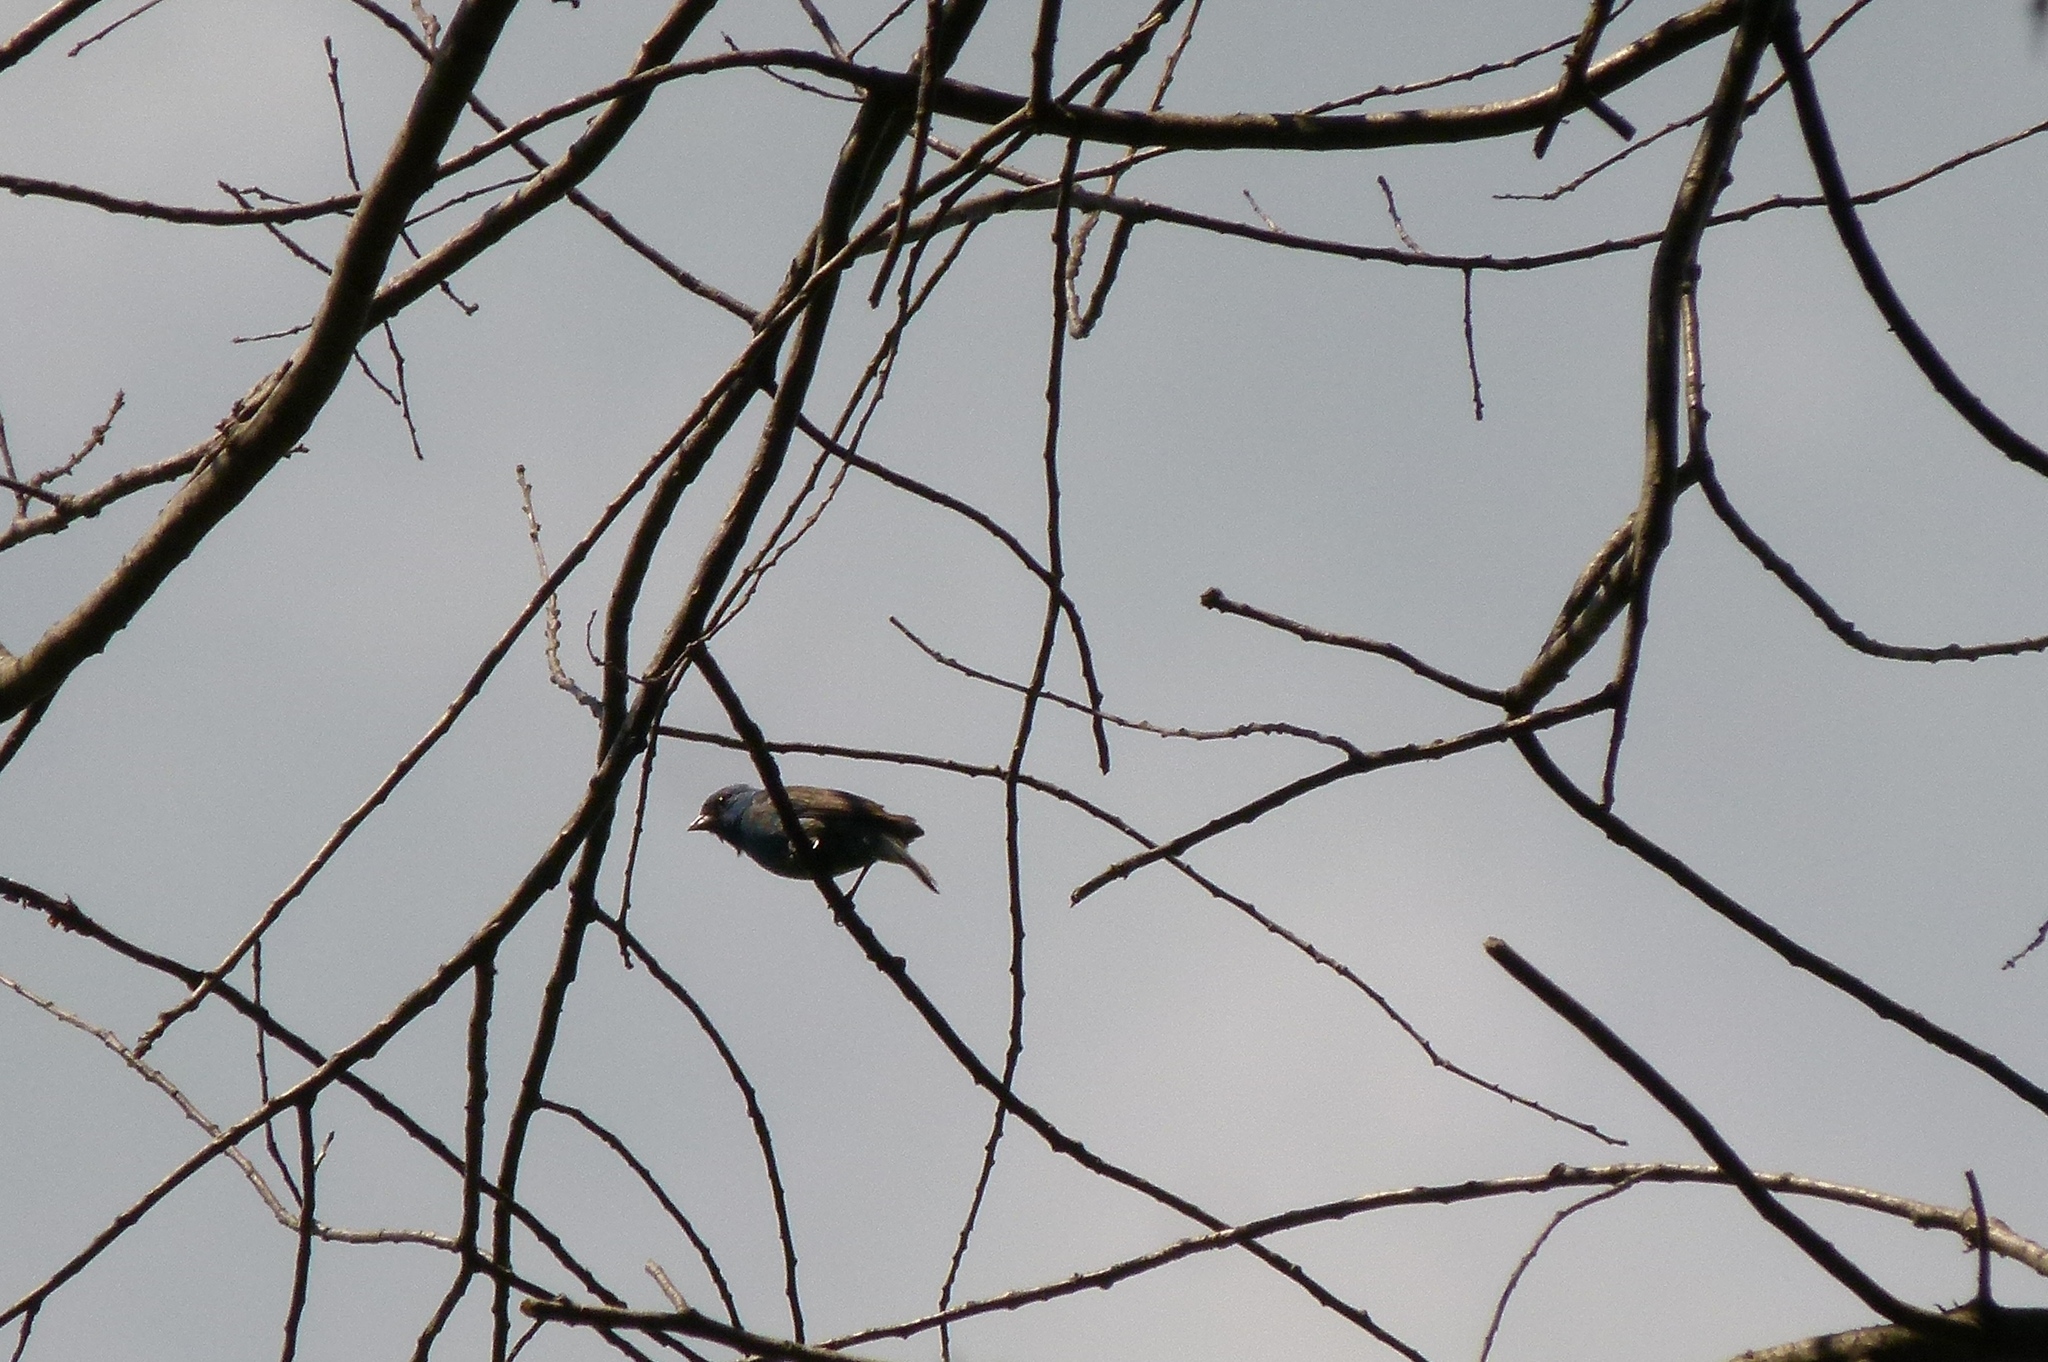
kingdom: Animalia
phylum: Chordata
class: Aves
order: Passeriformes
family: Cardinalidae
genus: Passerina
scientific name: Passerina cyanea
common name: Indigo bunting
